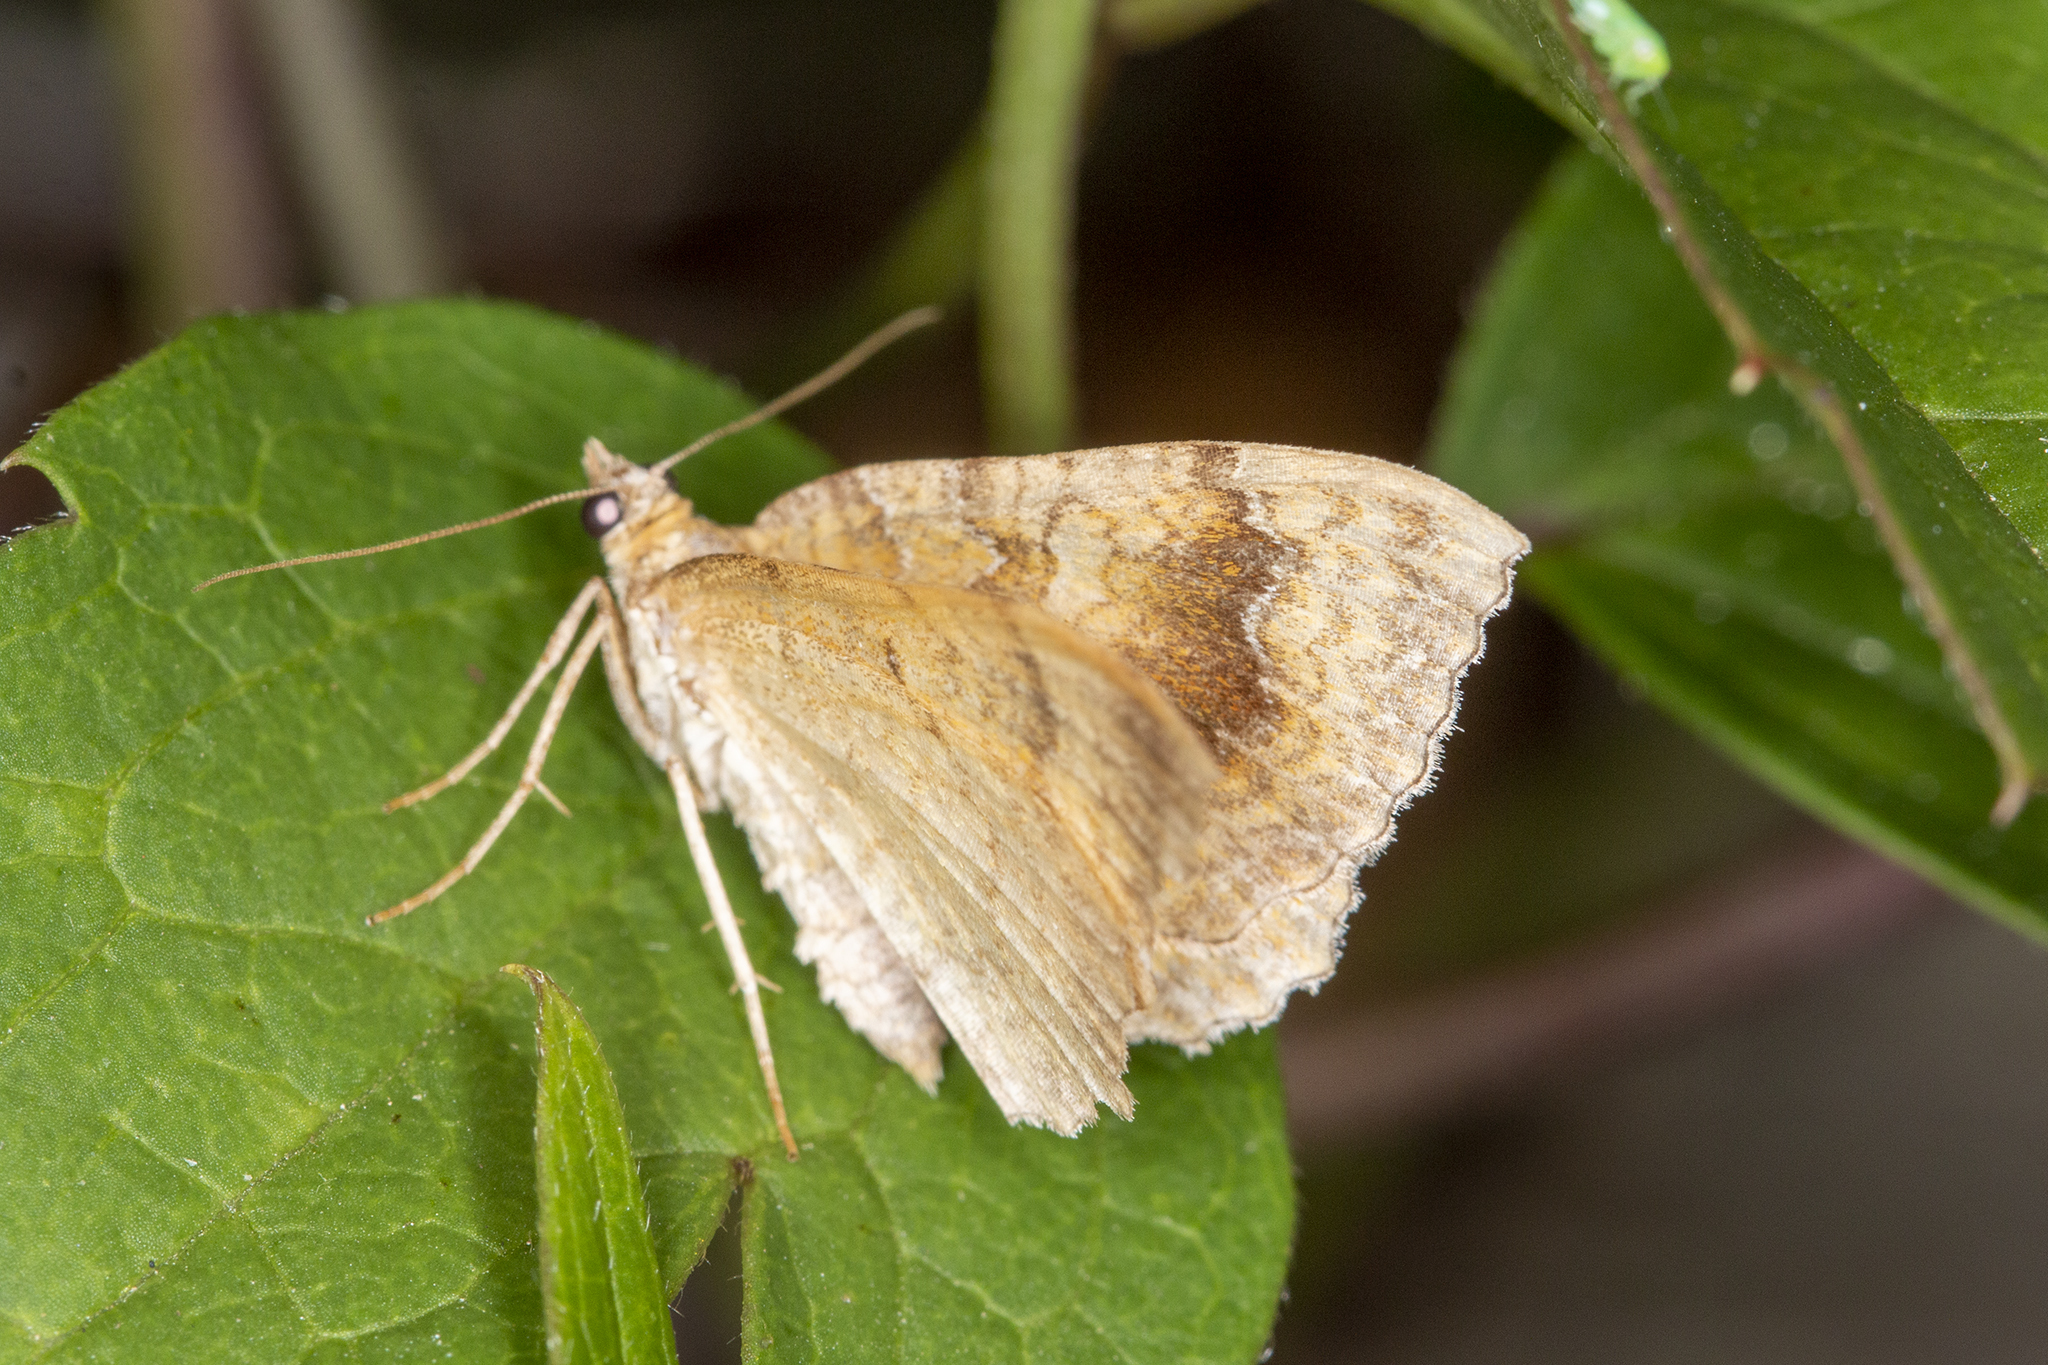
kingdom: Animalia
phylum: Arthropoda
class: Insecta
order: Lepidoptera
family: Geometridae
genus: Camptogramma
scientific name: Camptogramma bilineata
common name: Yellow shell
